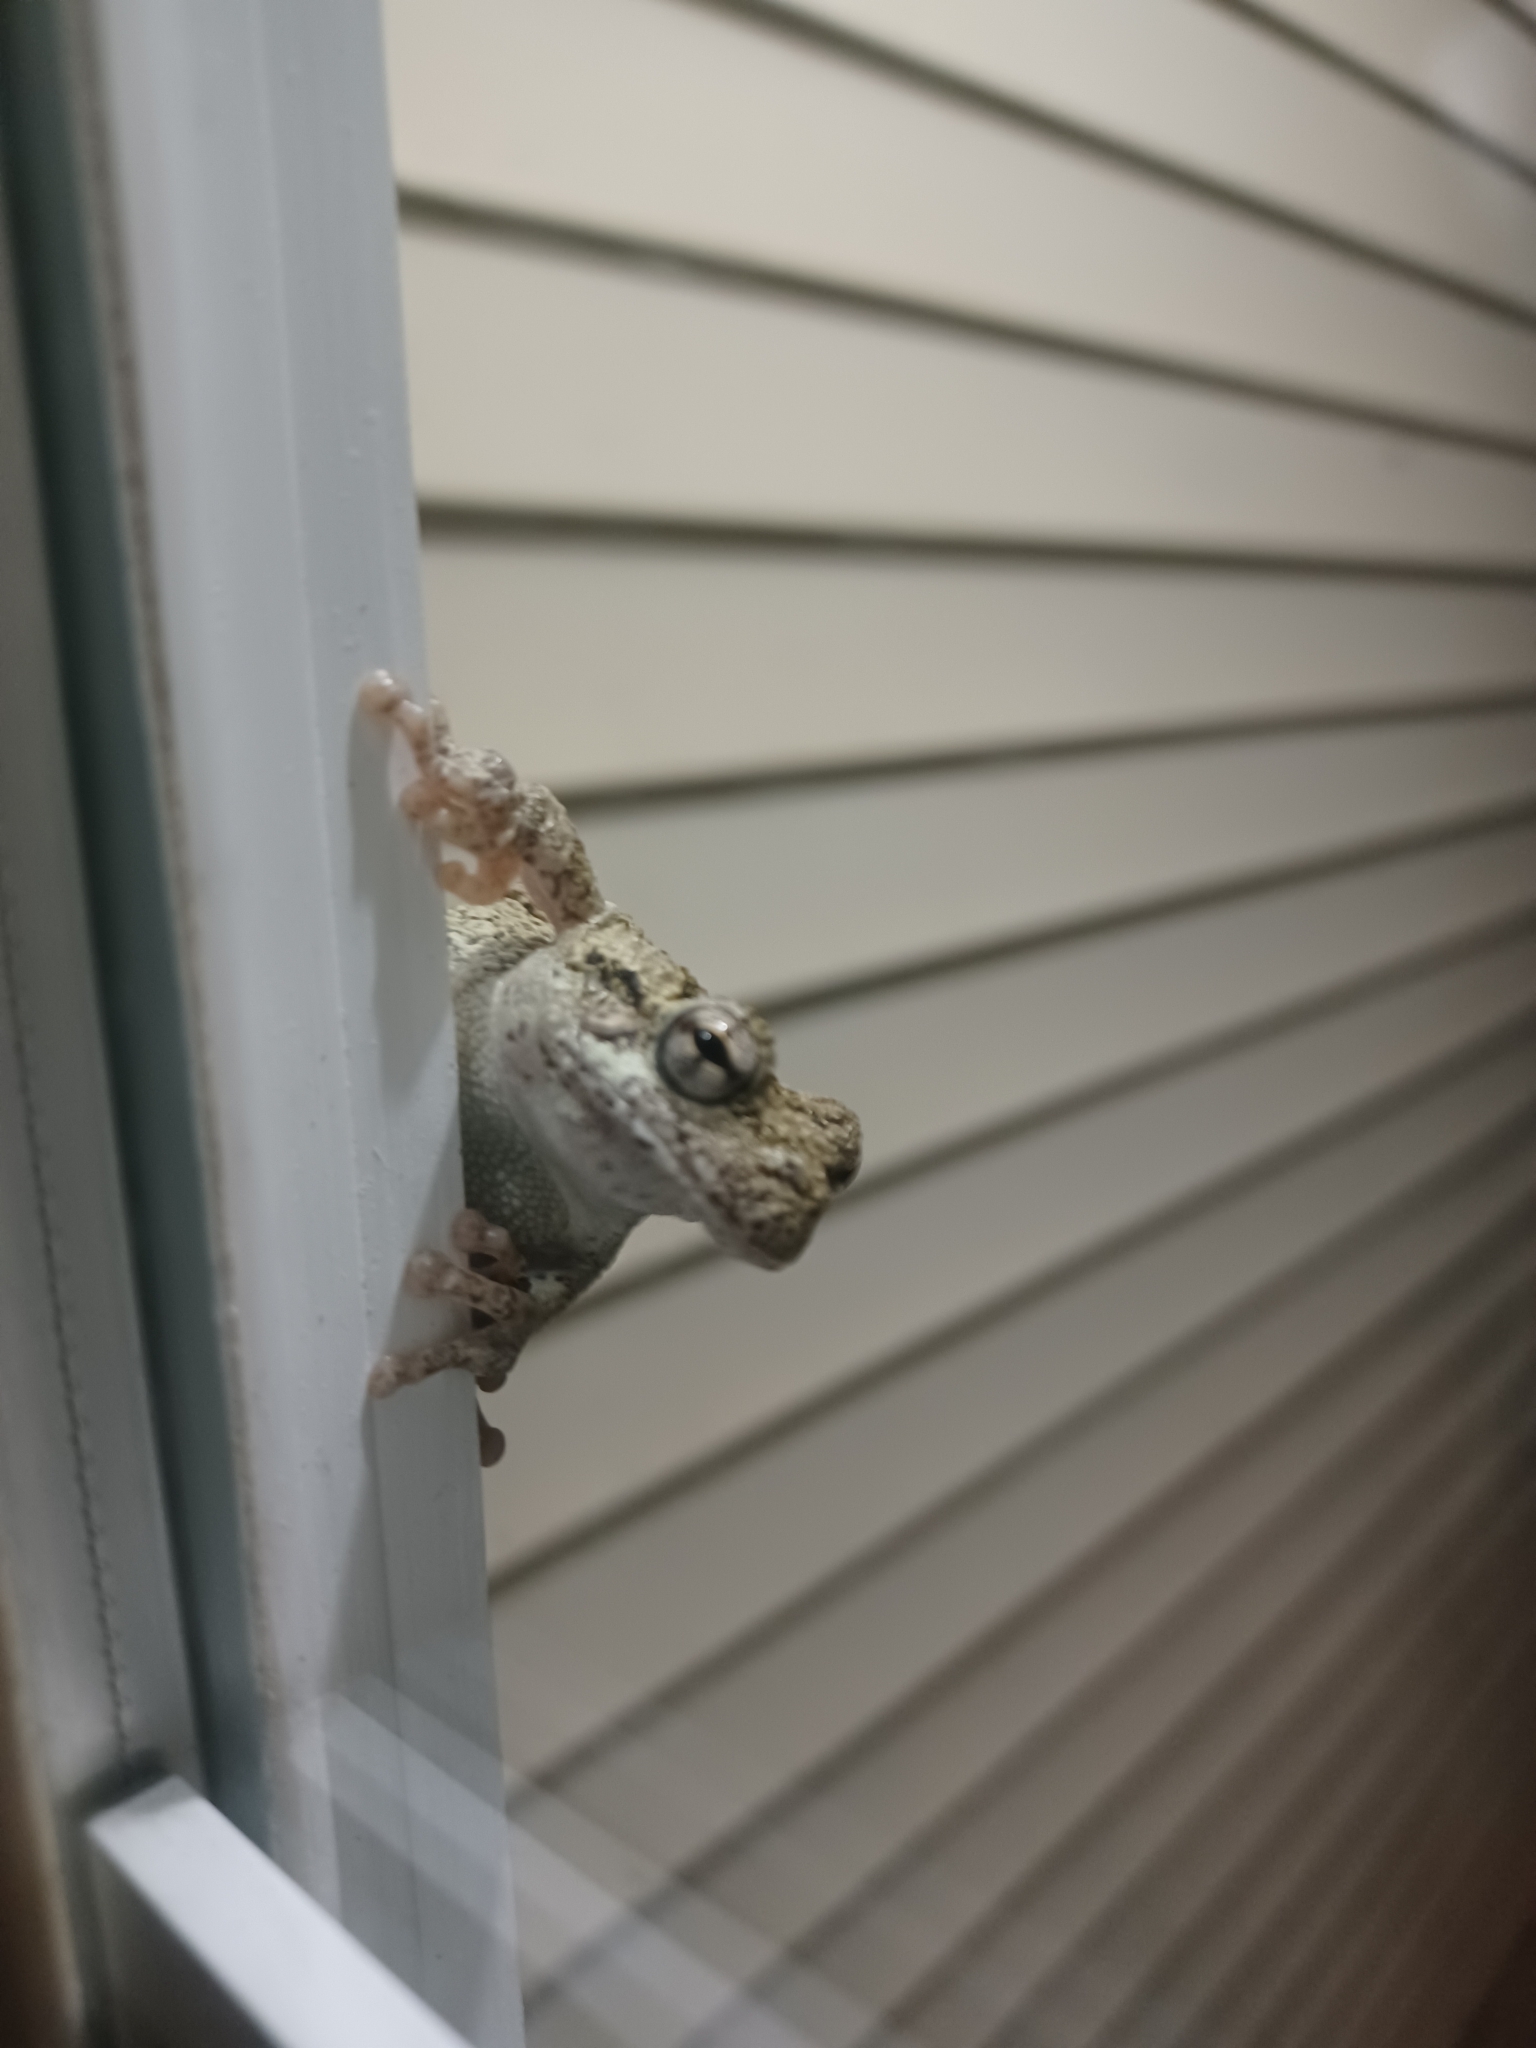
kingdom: Animalia
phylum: Chordata
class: Amphibia
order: Anura
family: Hylidae
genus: Dryophytes
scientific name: Dryophytes chrysoscelis
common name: Cope's gray treefrog
